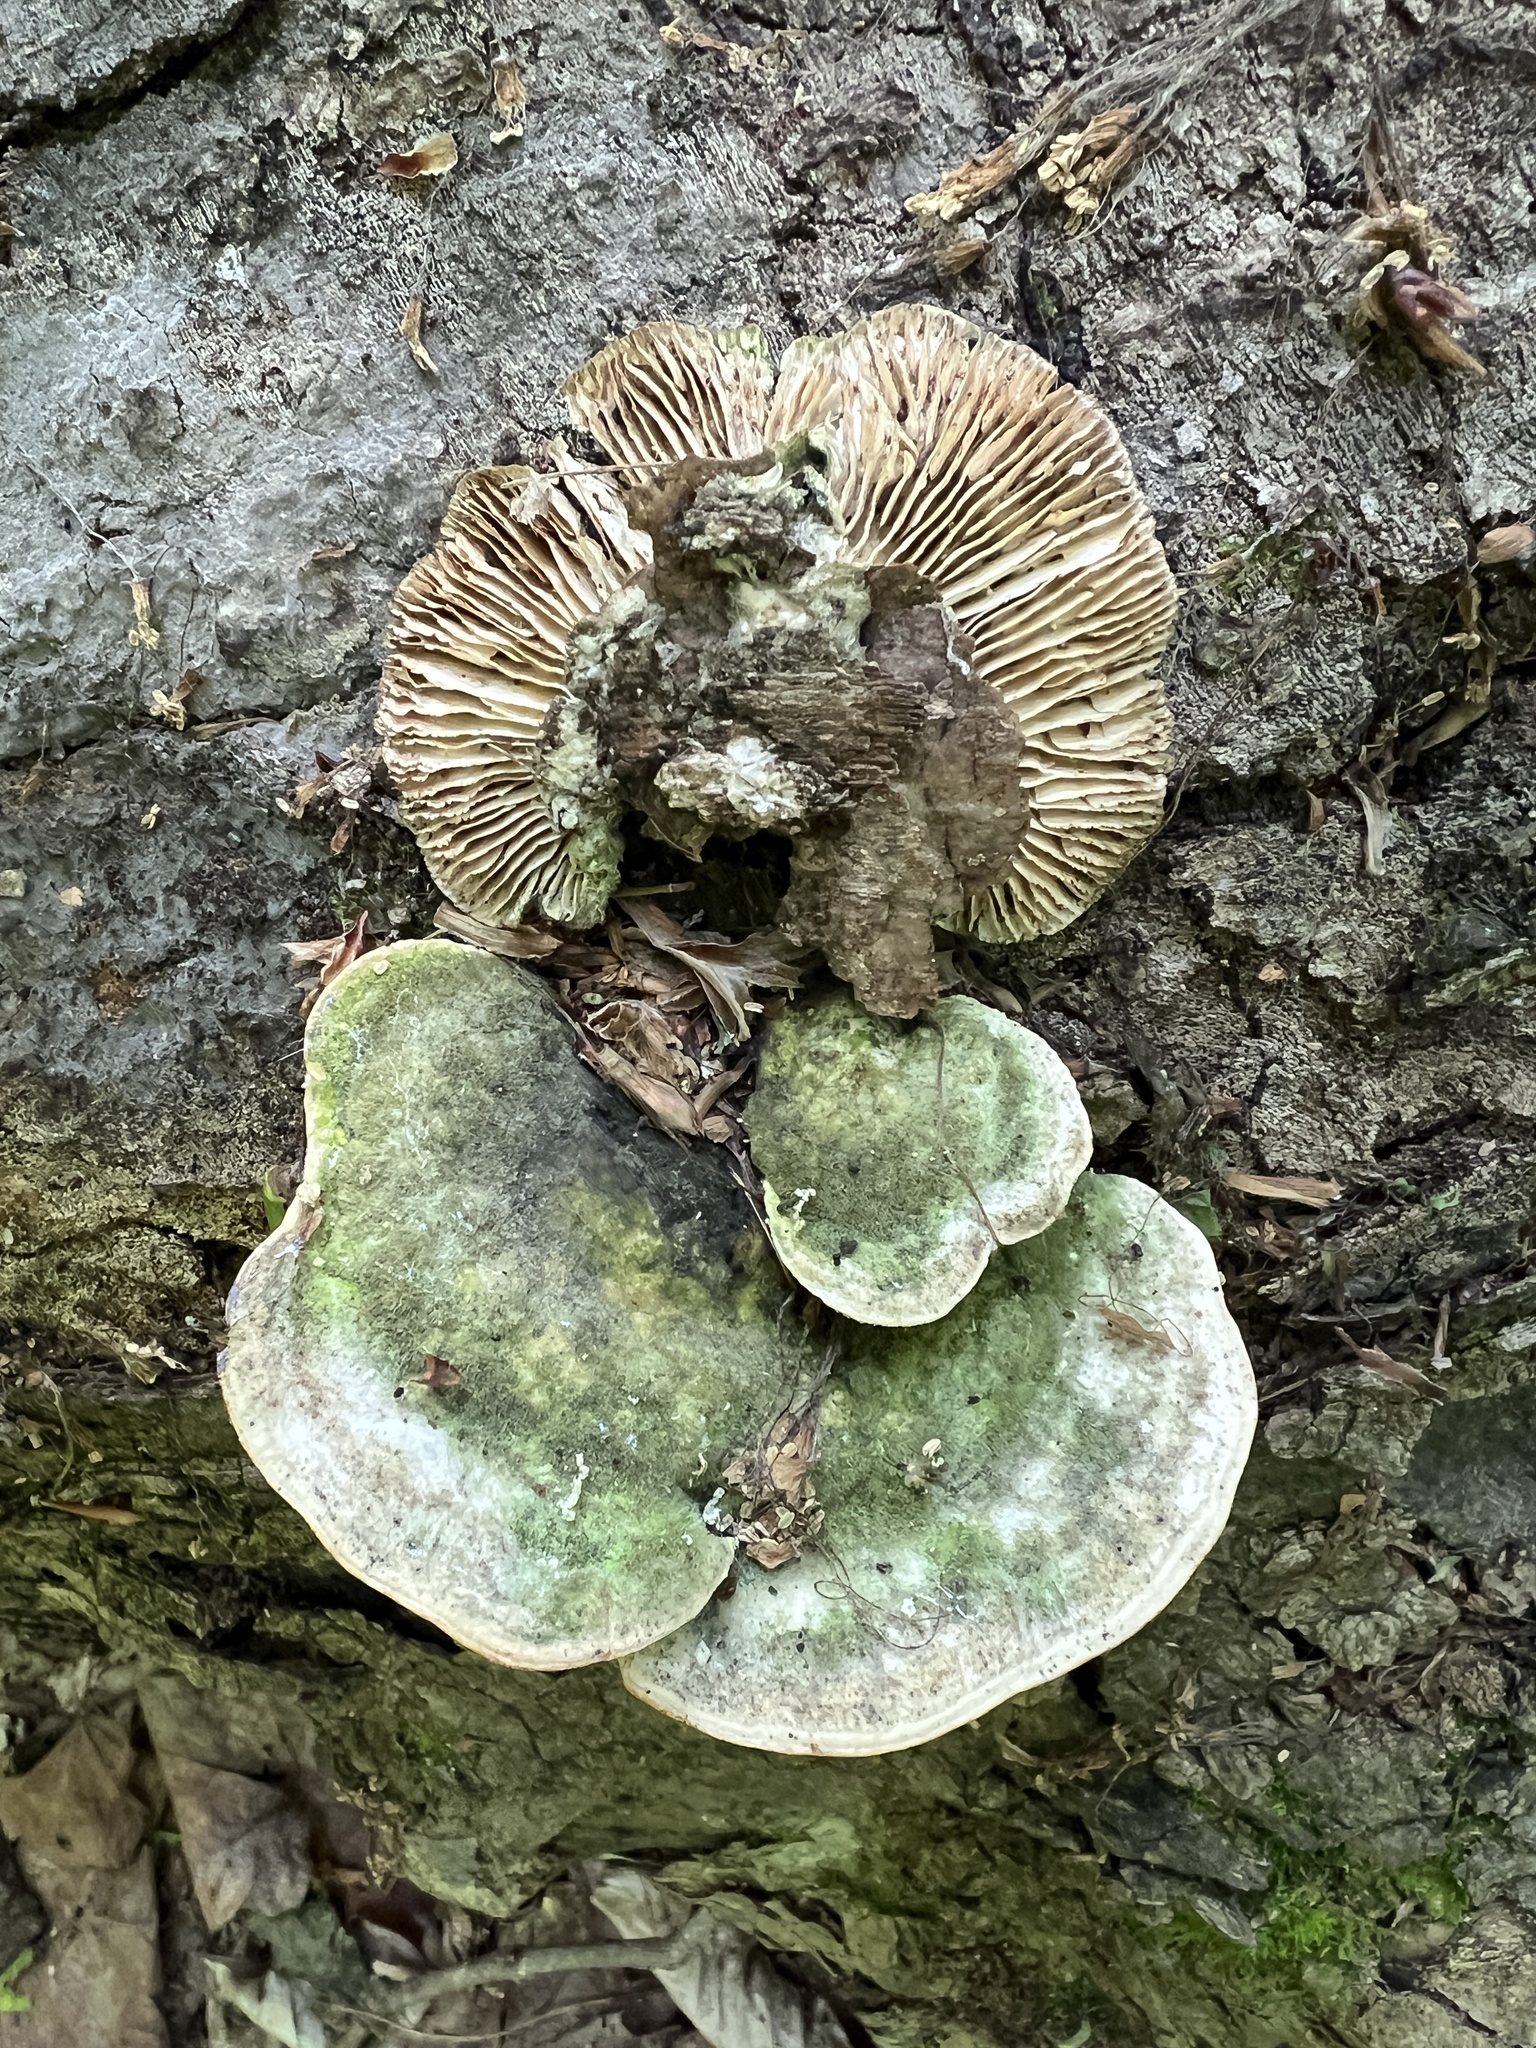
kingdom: Fungi
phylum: Basidiomycota
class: Agaricomycetes
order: Polyporales
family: Polyporaceae
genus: Lenzites
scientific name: Lenzites betulinus
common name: Birch mazegill
